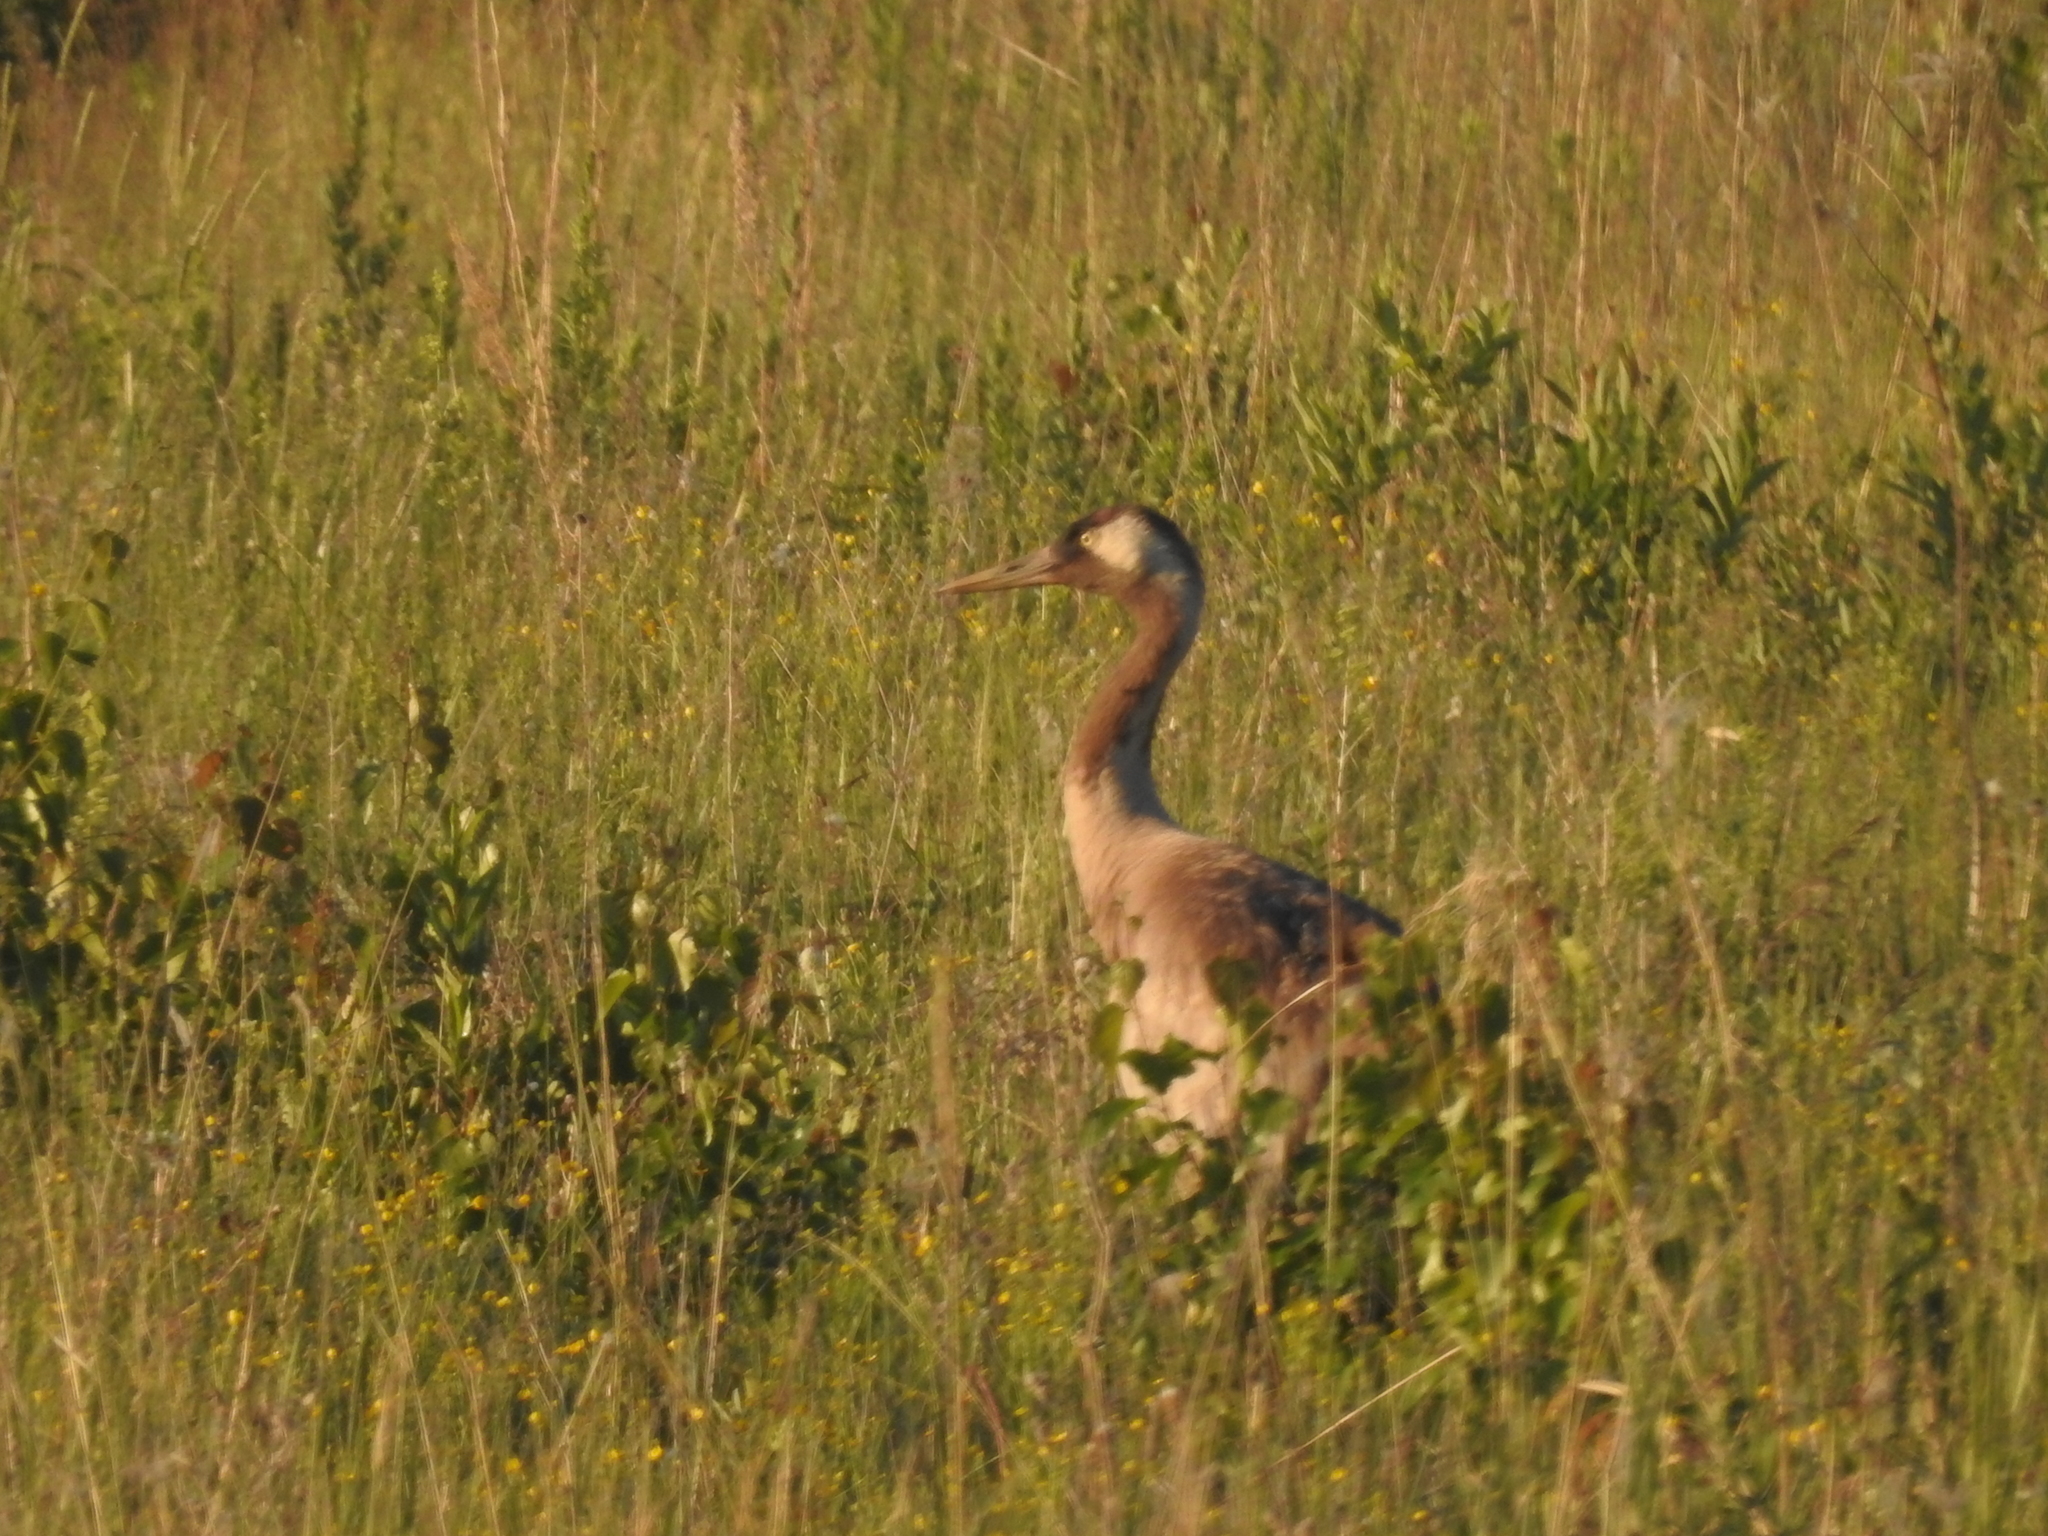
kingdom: Animalia
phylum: Chordata
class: Aves
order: Gruiformes
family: Gruidae
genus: Grus
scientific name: Grus grus
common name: Common crane
